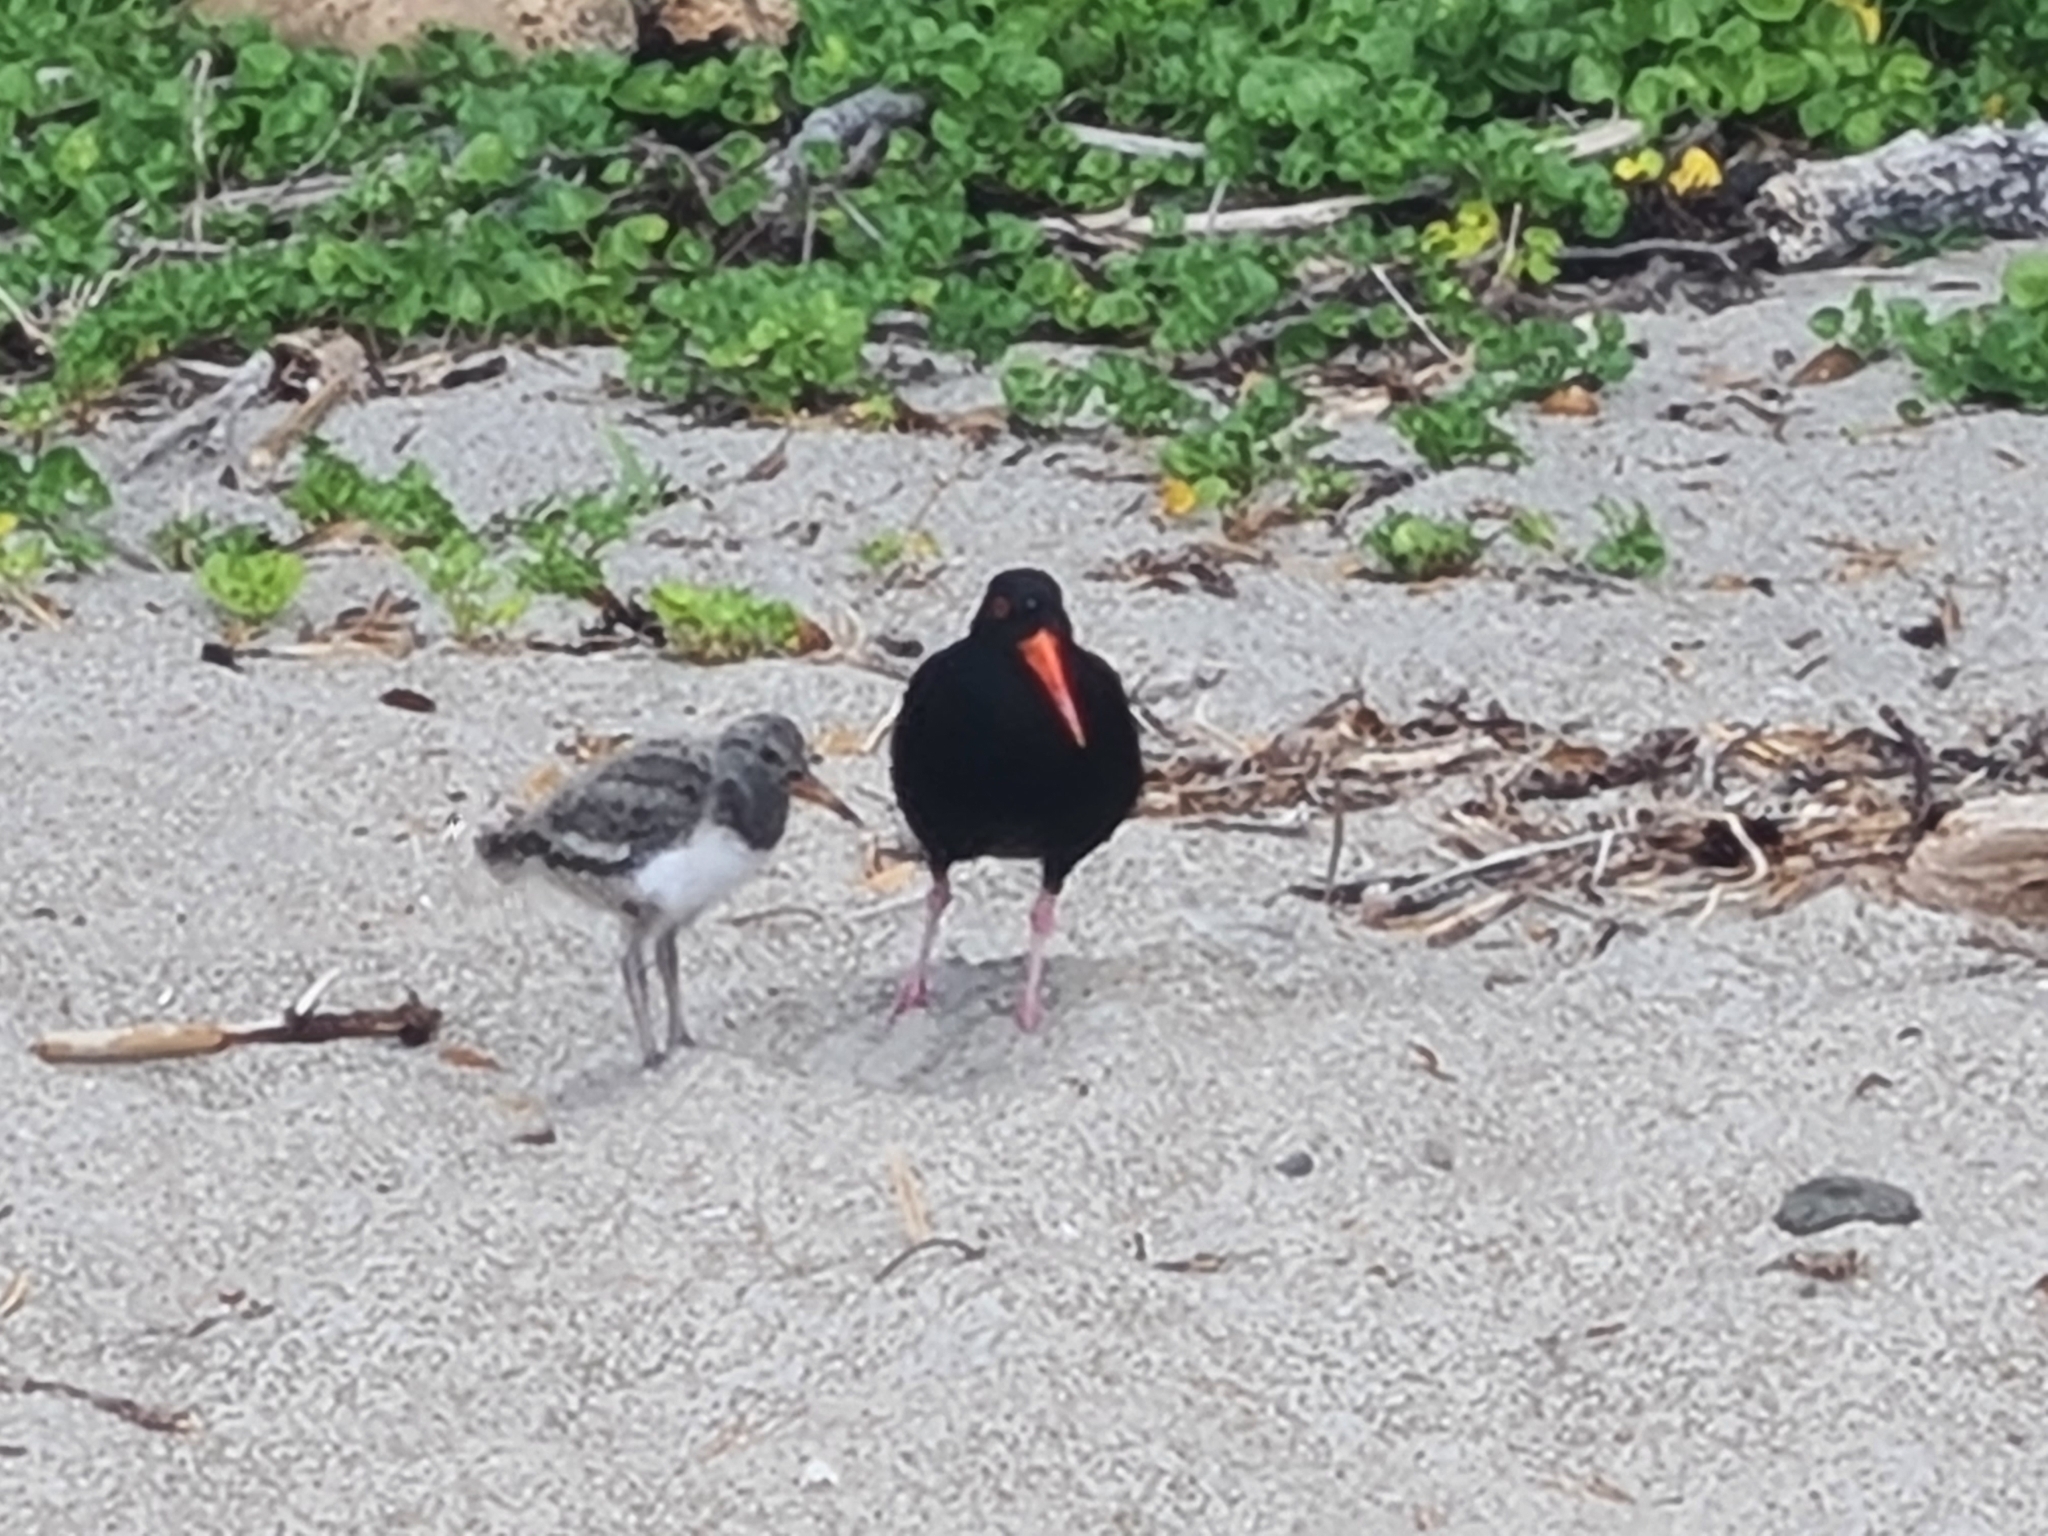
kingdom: Animalia
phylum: Chordata
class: Aves
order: Charadriiformes
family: Haematopodidae
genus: Haematopus
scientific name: Haematopus unicolor
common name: Variable oystercatcher
